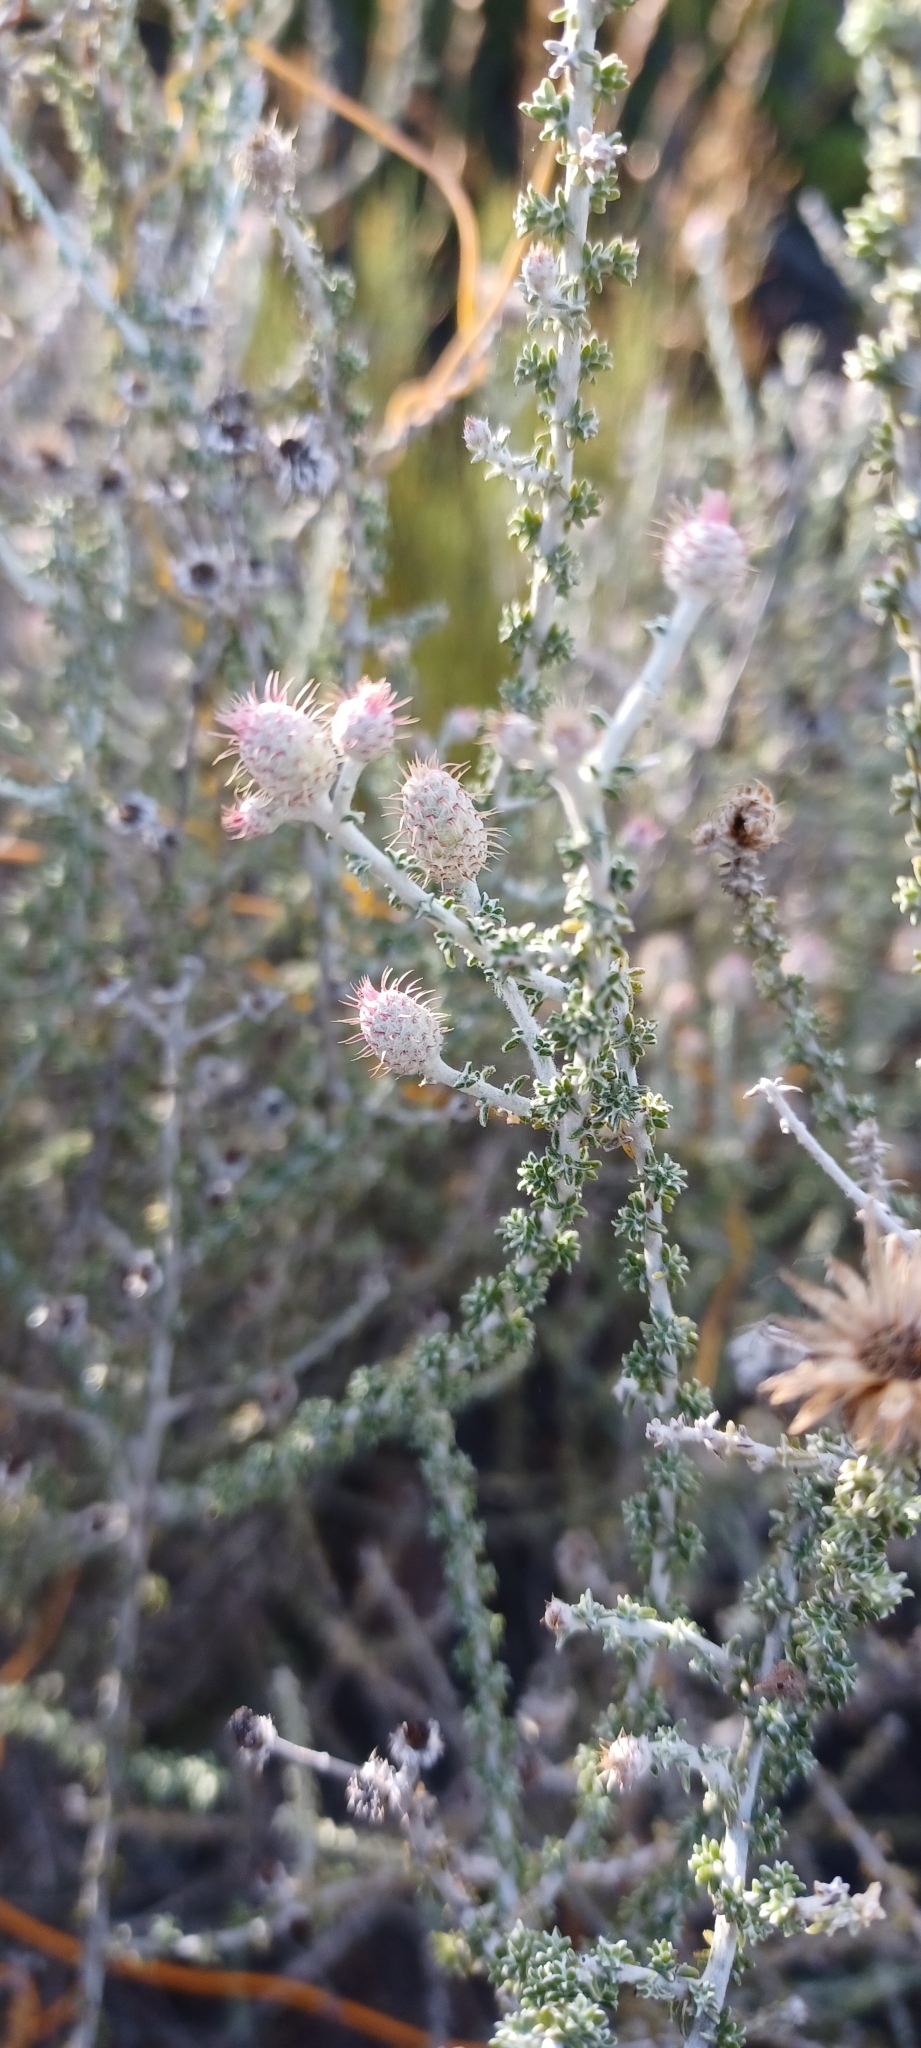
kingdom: Plantae
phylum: Tracheophyta
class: Magnoliopsida
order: Asterales
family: Asteraceae
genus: Lachnospermum
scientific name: Lachnospermum neglectum
